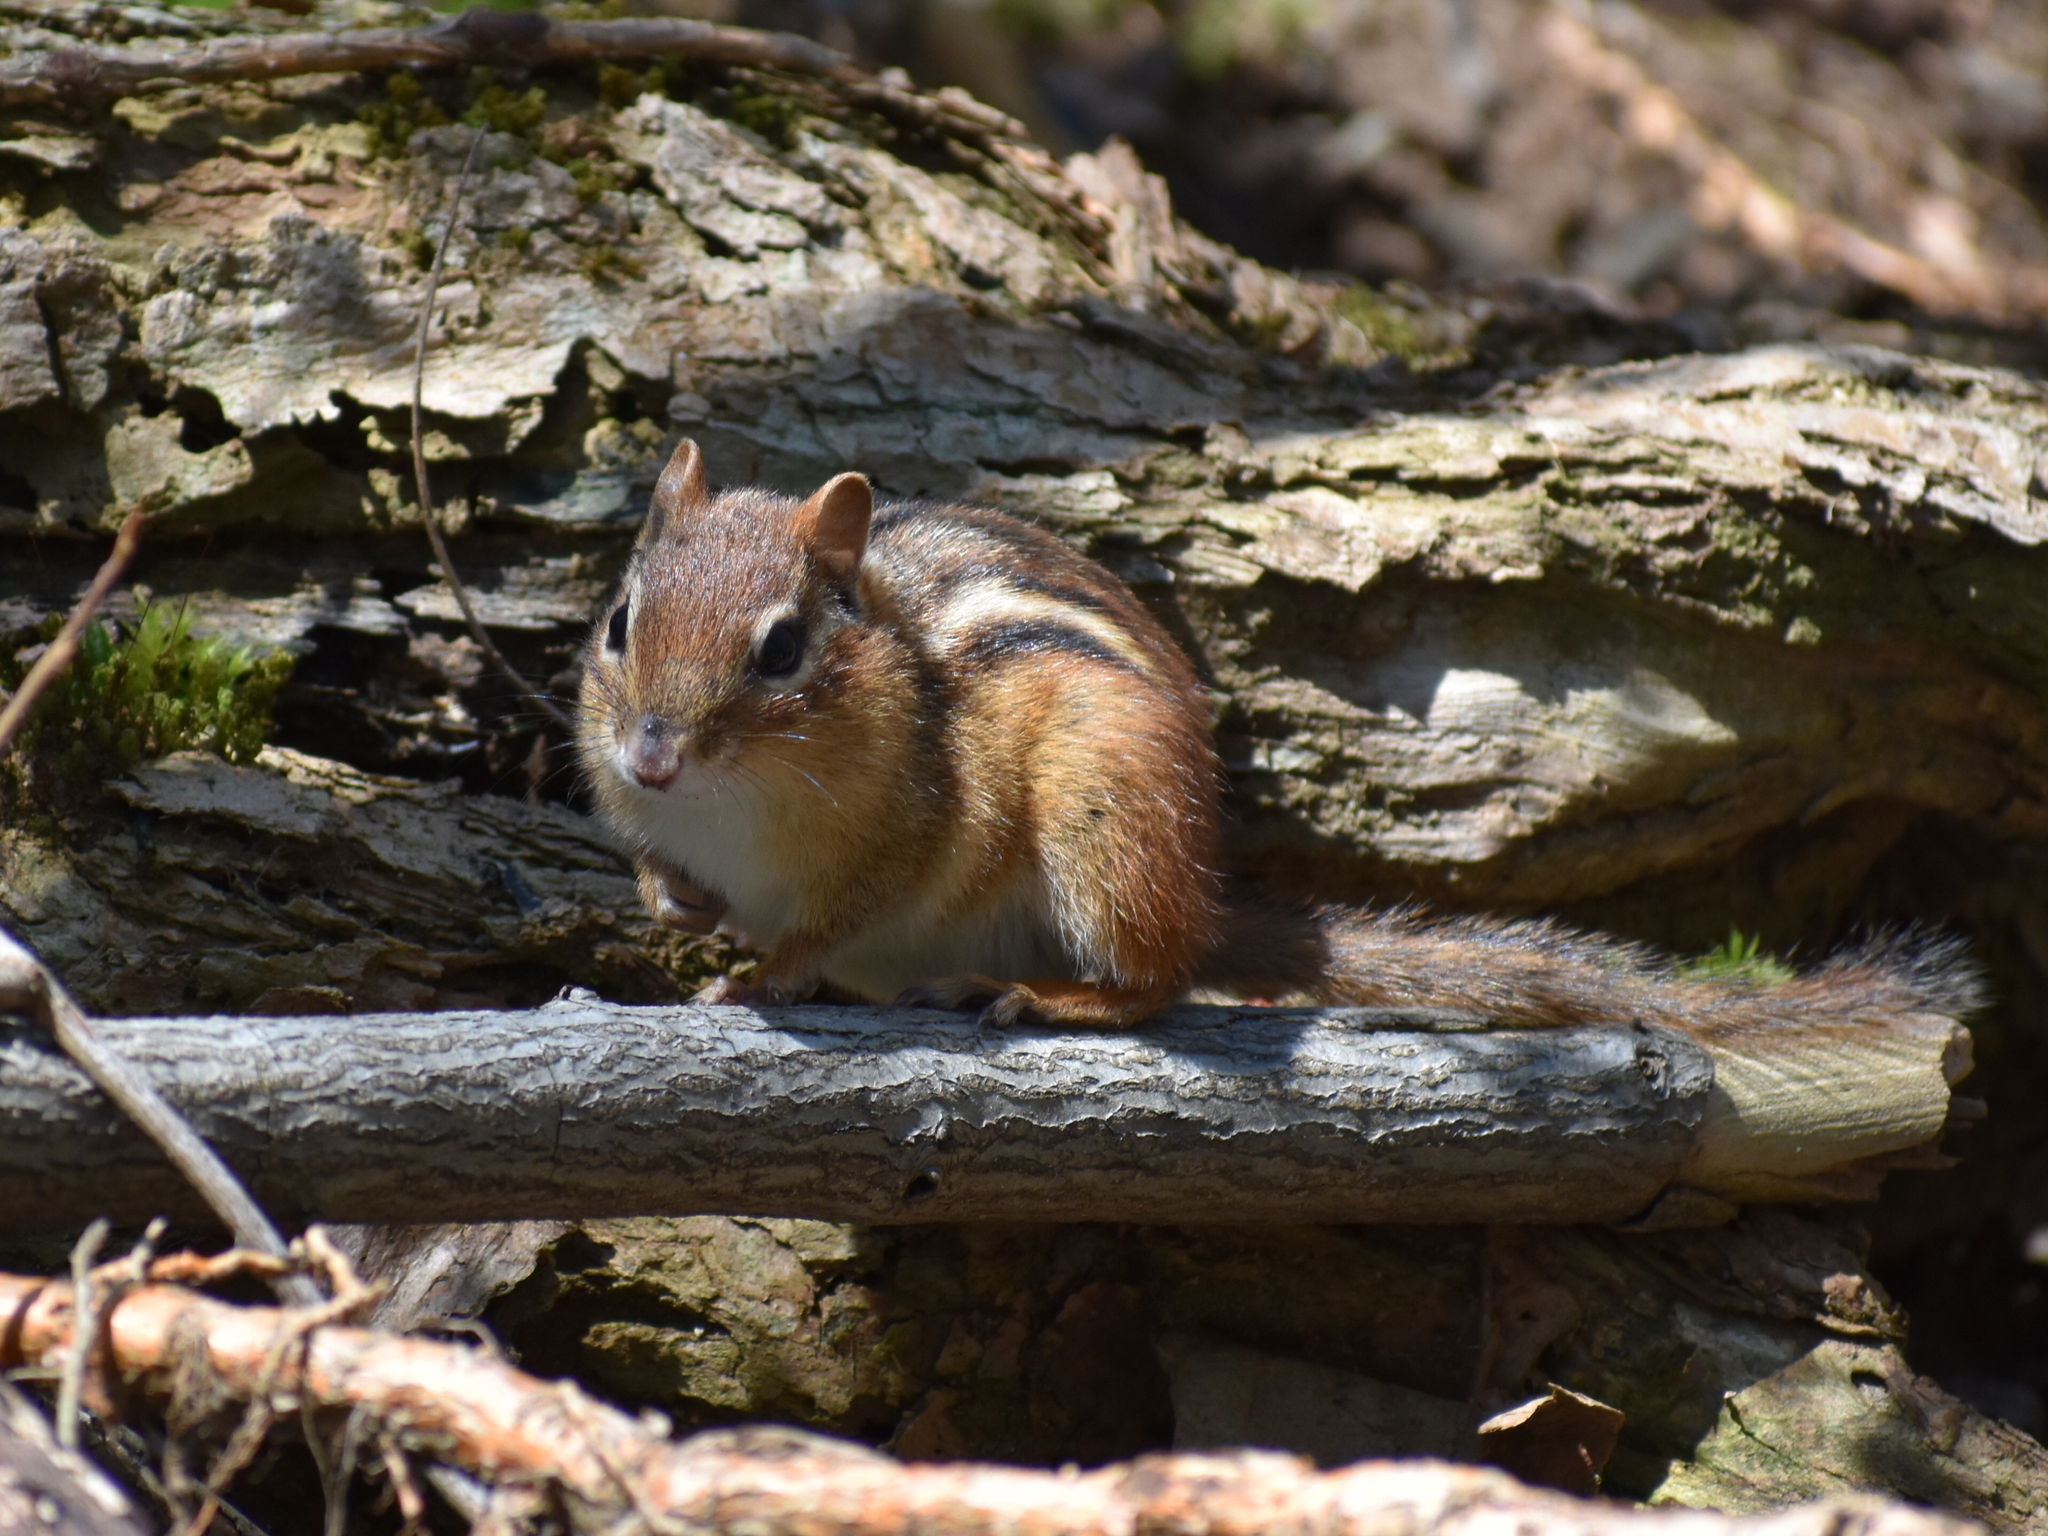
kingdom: Animalia
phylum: Chordata
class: Mammalia
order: Rodentia
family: Sciuridae
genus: Tamias
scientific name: Tamias striatus
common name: Eastern chipmunk
